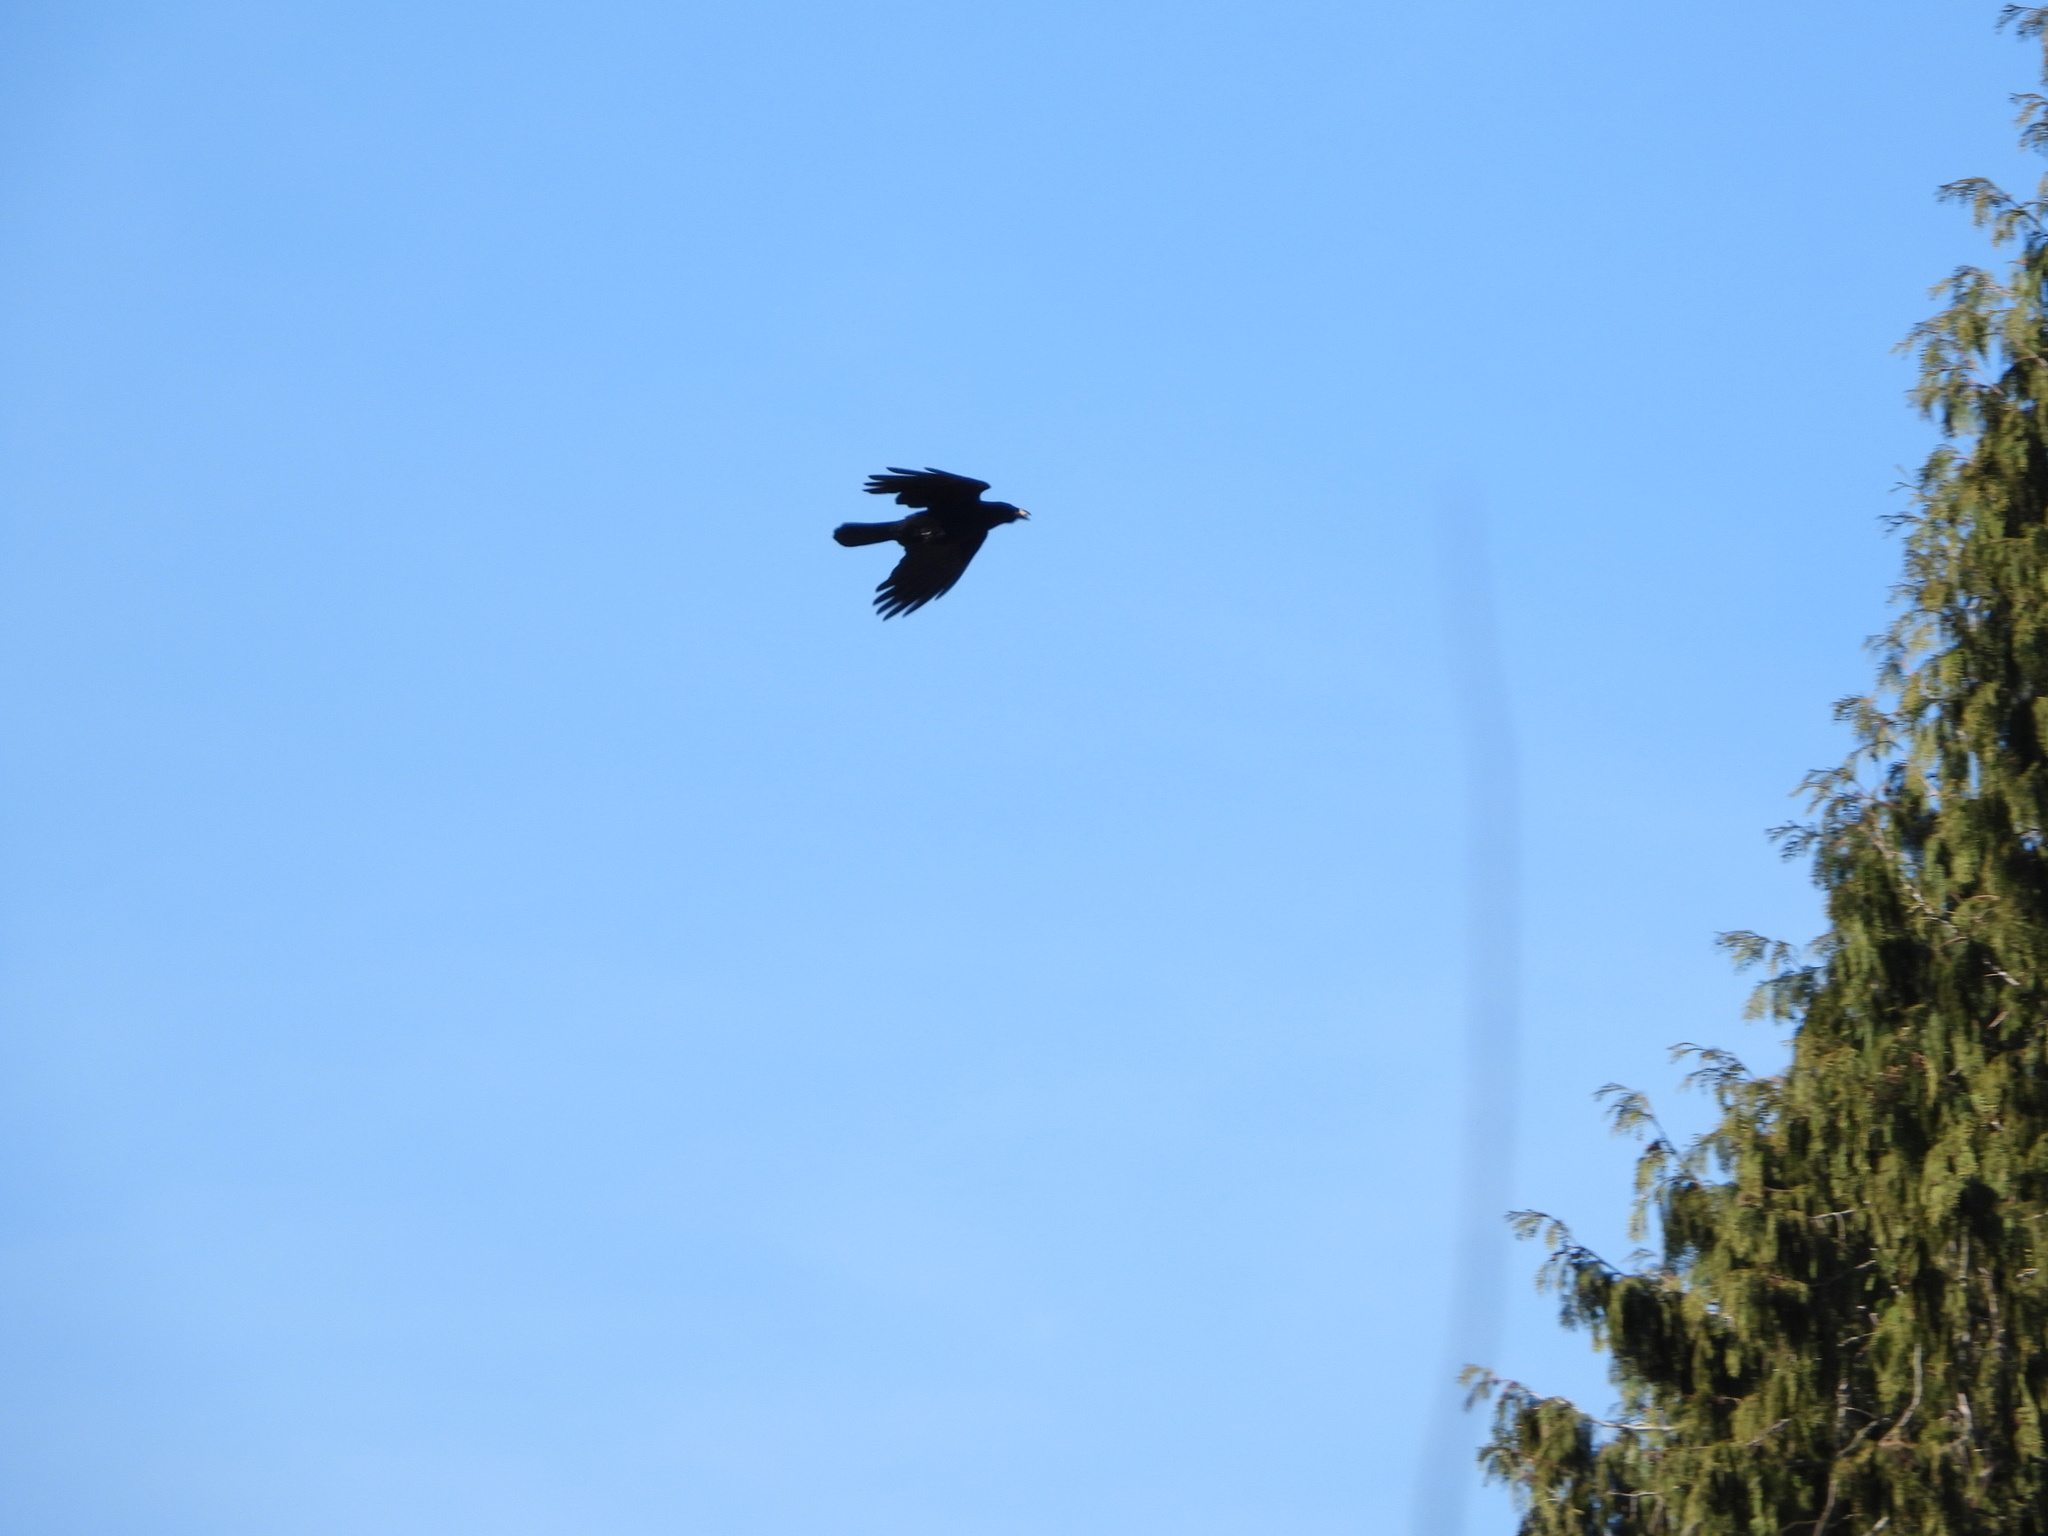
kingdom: Animalia
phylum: Chordata
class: Aves
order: Passeriformes
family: Corvidae
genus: Corvus
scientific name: Corvus brachyrhynchos
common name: American crow
